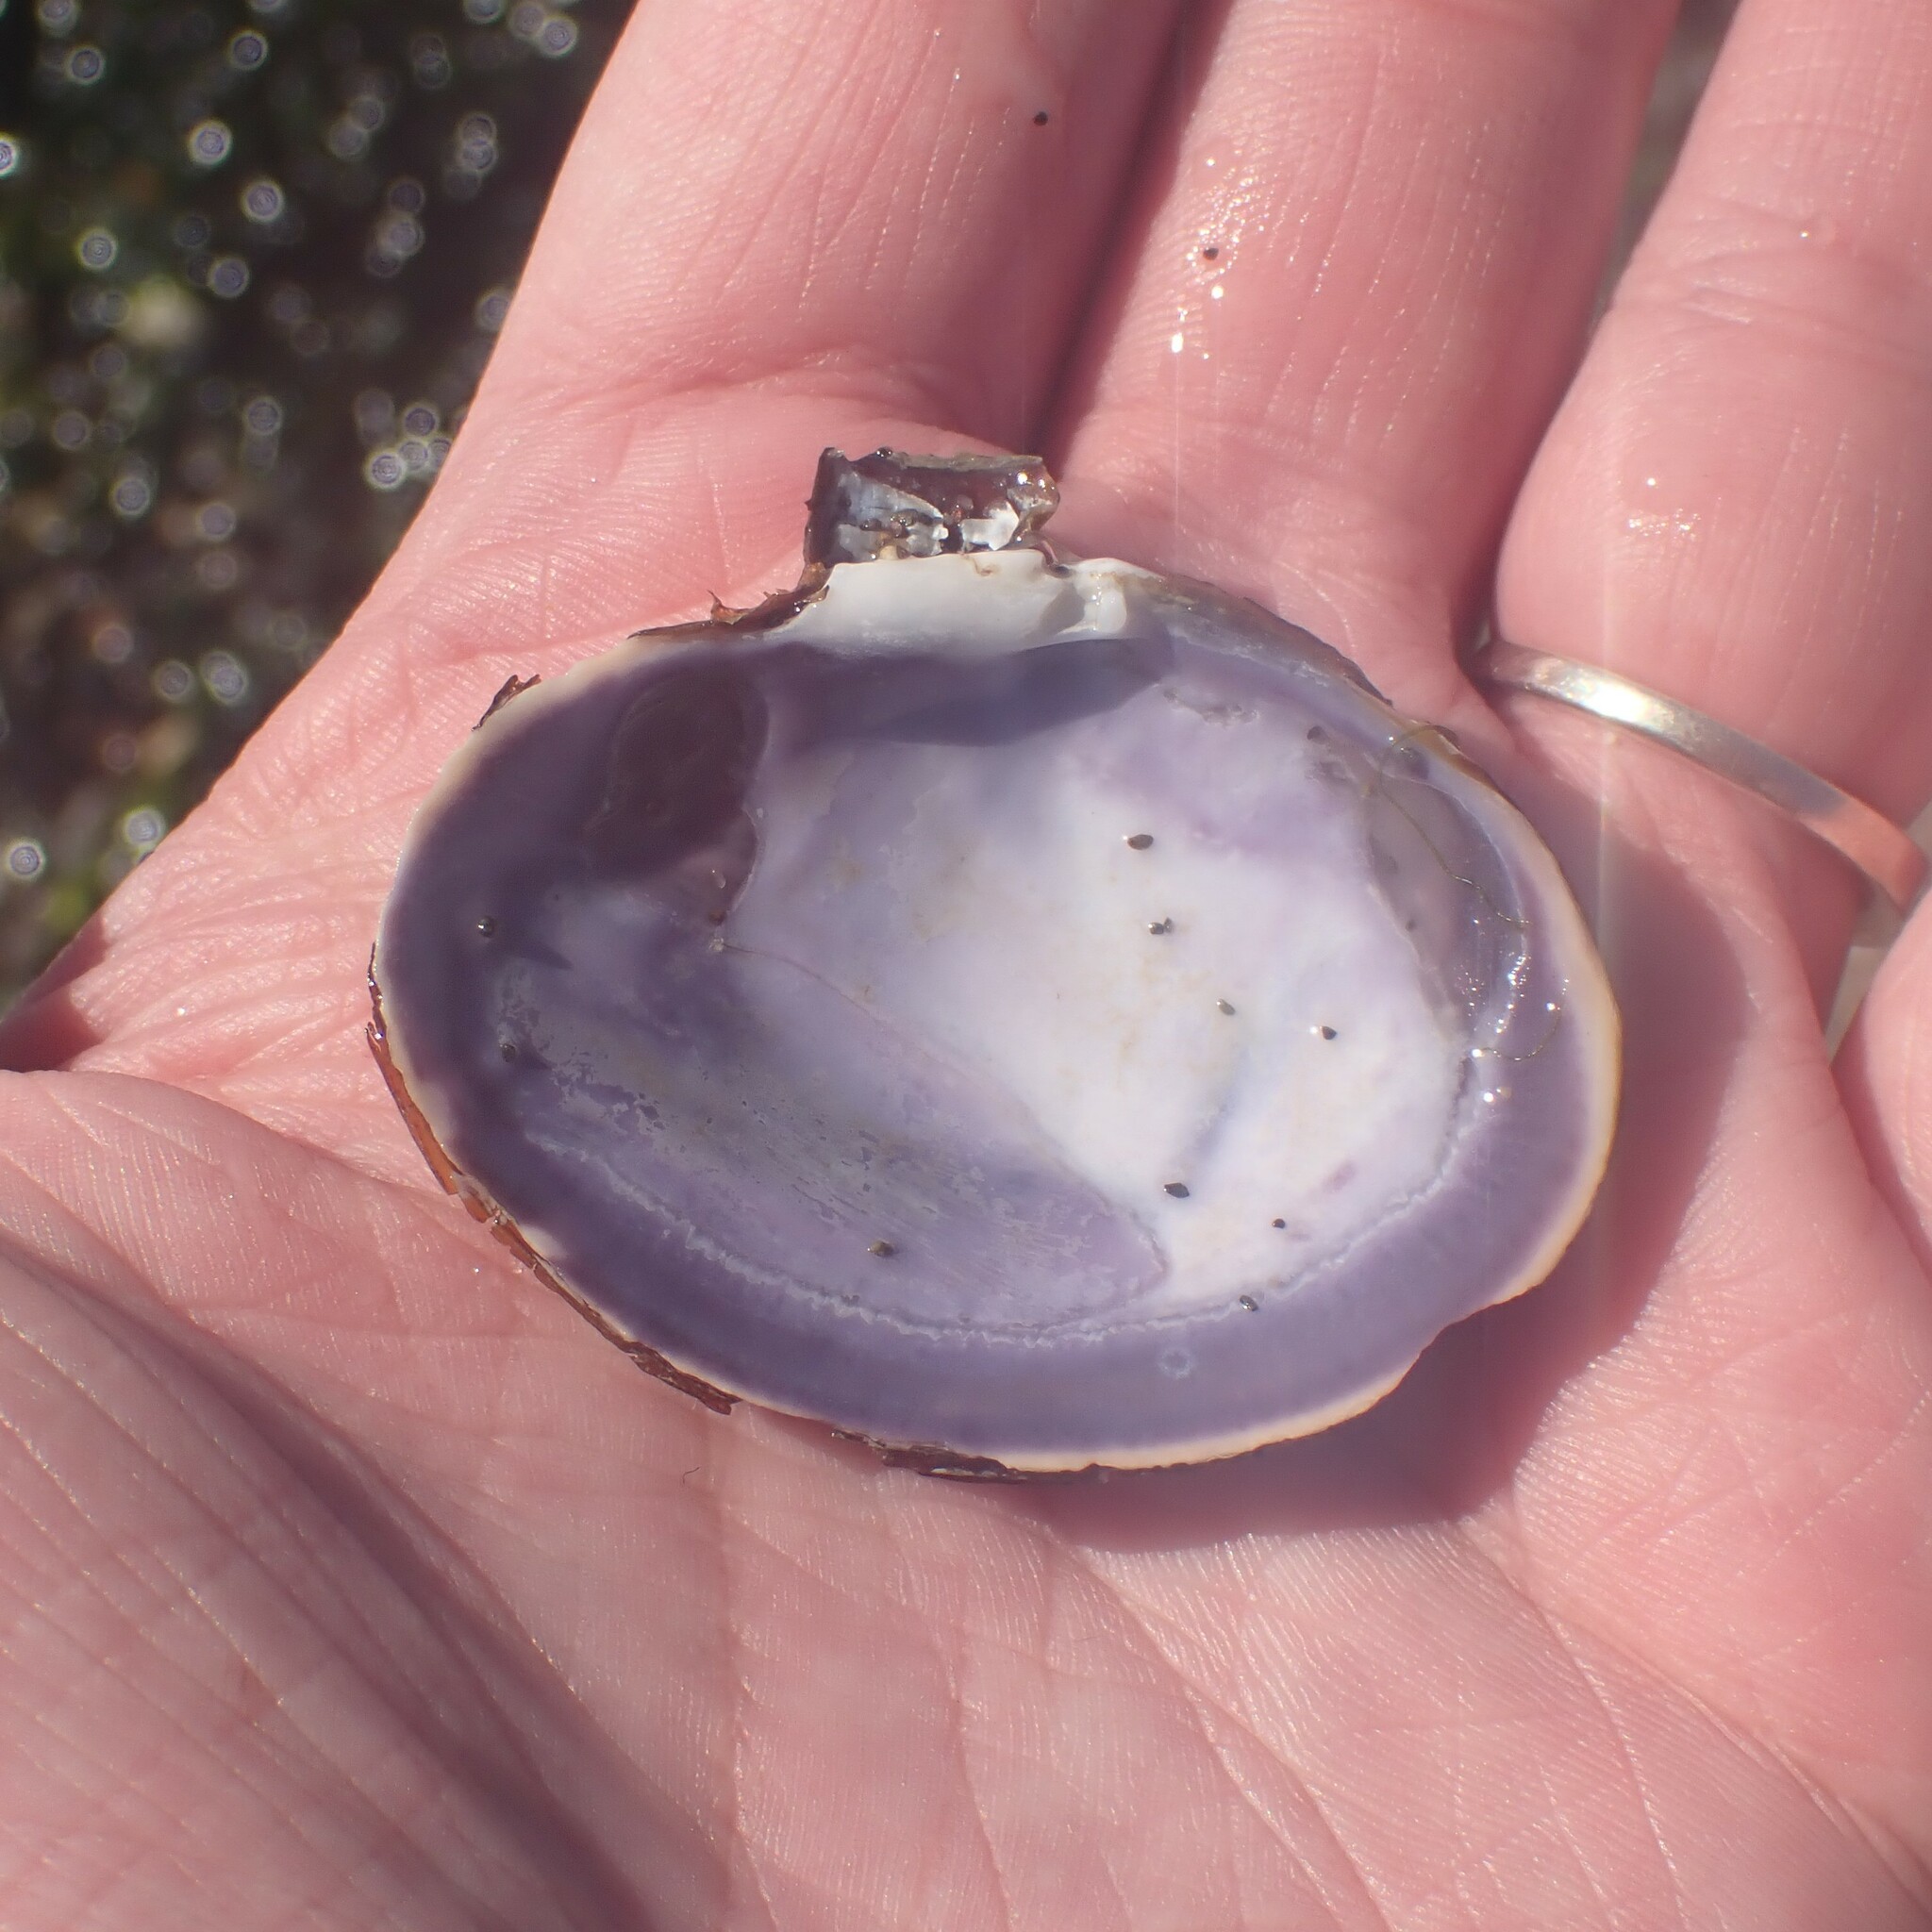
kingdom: Animalia
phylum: Mollusca
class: Bivalvia
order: Cardiida
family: Psammobiidae
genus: Nuttallia
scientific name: Nuttallia obscurata
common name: Purple mahogany-clam
